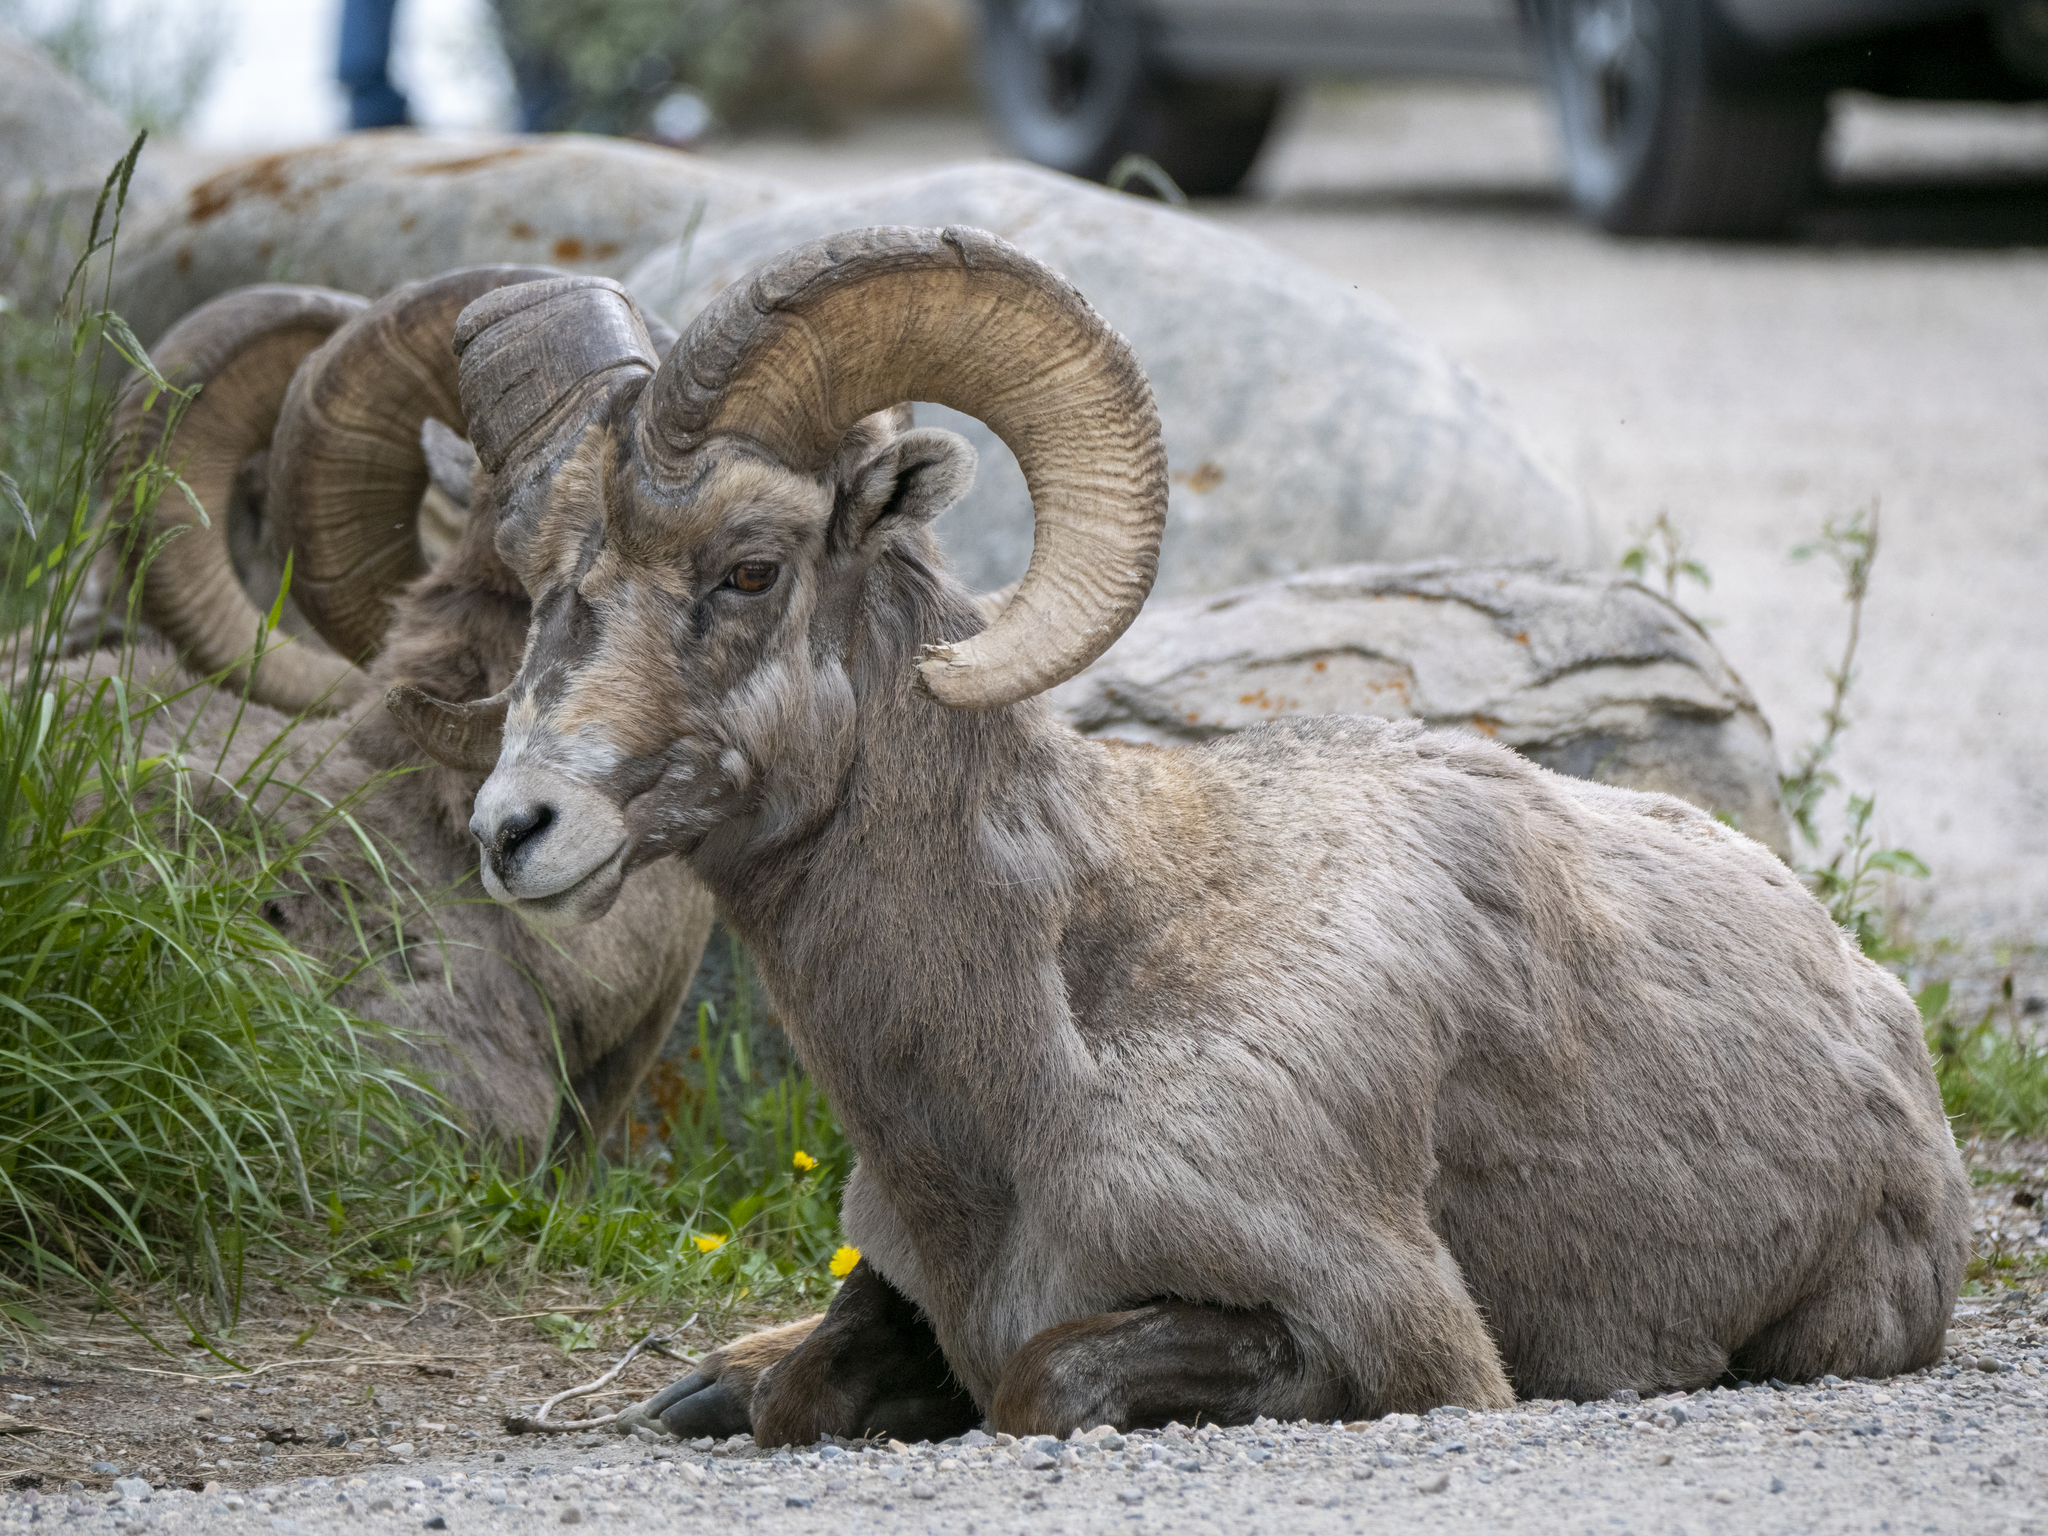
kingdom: Animalia
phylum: Chordata
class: Mammalia
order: Artiodactyla
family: Bovidae
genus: Ovis
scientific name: Ovis canadensis
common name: Bighorn sheep
